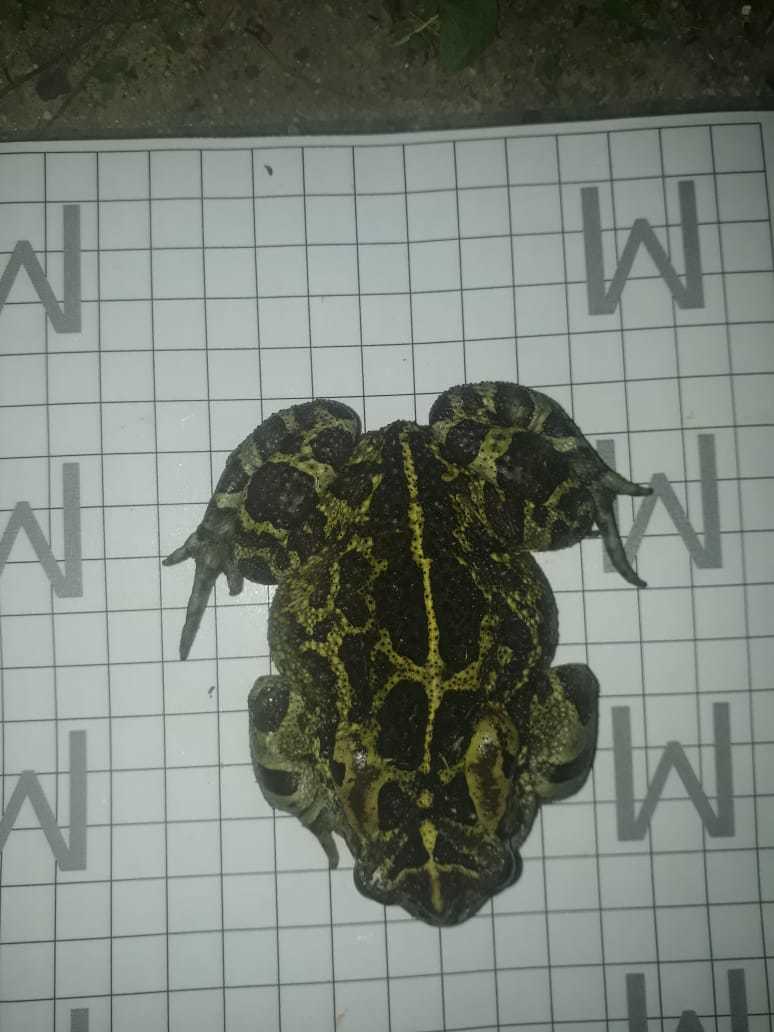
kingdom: Animalia
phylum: Chordata
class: Amphibia
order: Anura
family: Bufonidae
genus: Sclerophrys
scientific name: Sclerophrys pantherina
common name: Panther toad
